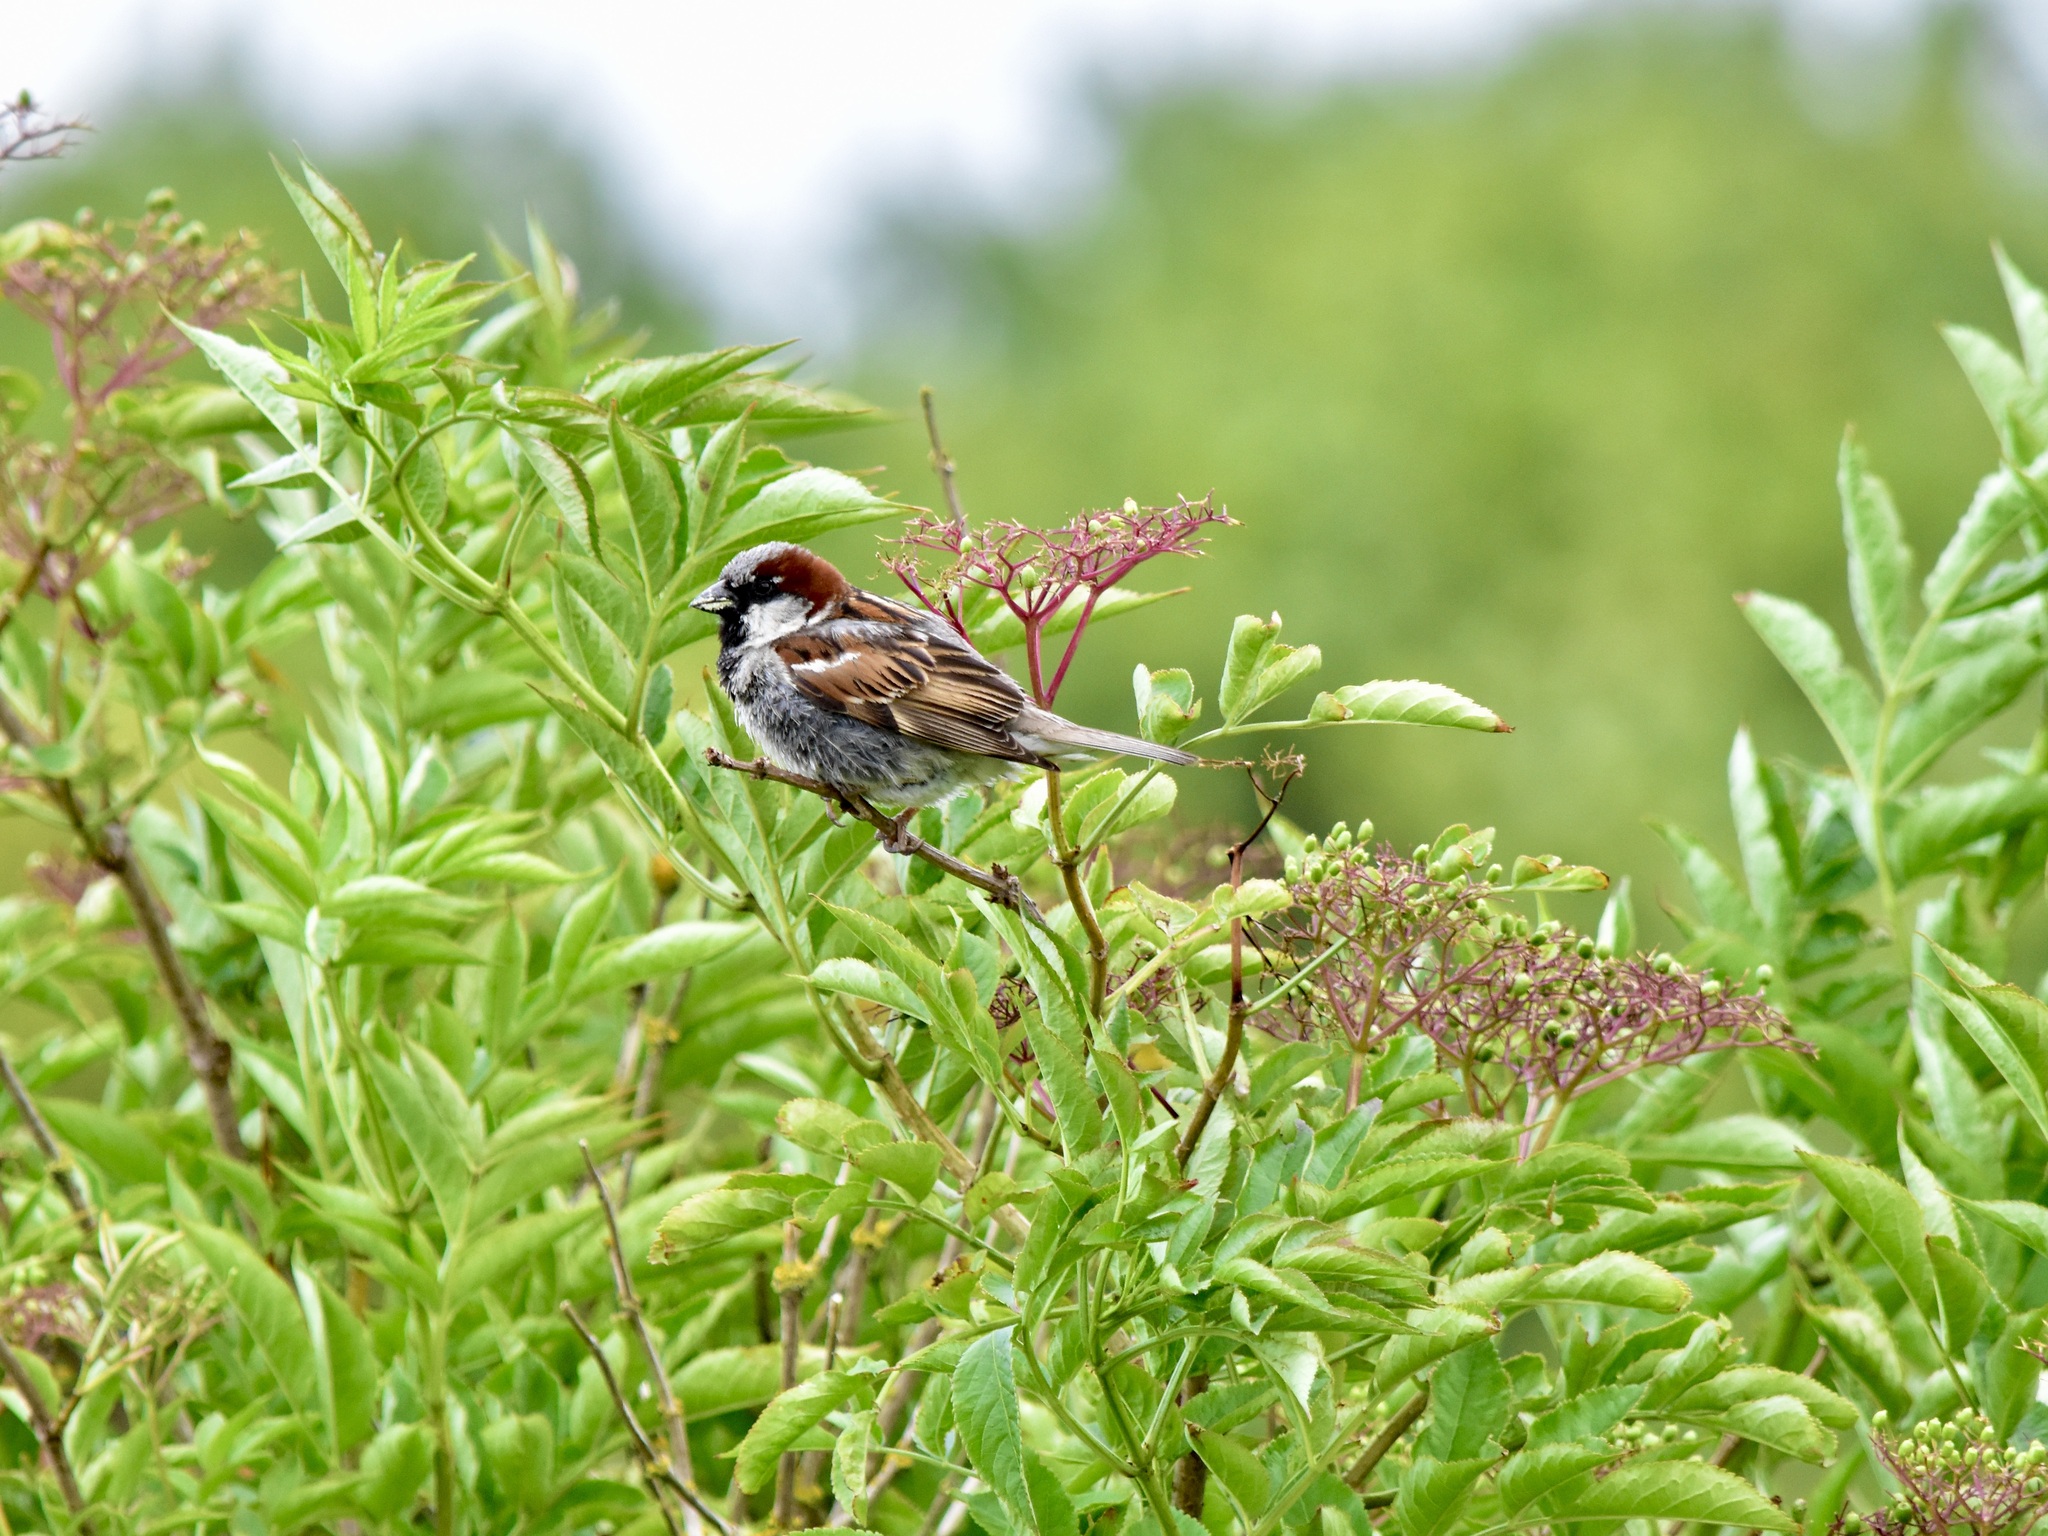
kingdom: Animalia
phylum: Chordata
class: Aves
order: Passeriformes
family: Passeridae
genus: Passer
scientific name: Passer domesticus
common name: House sparrow
